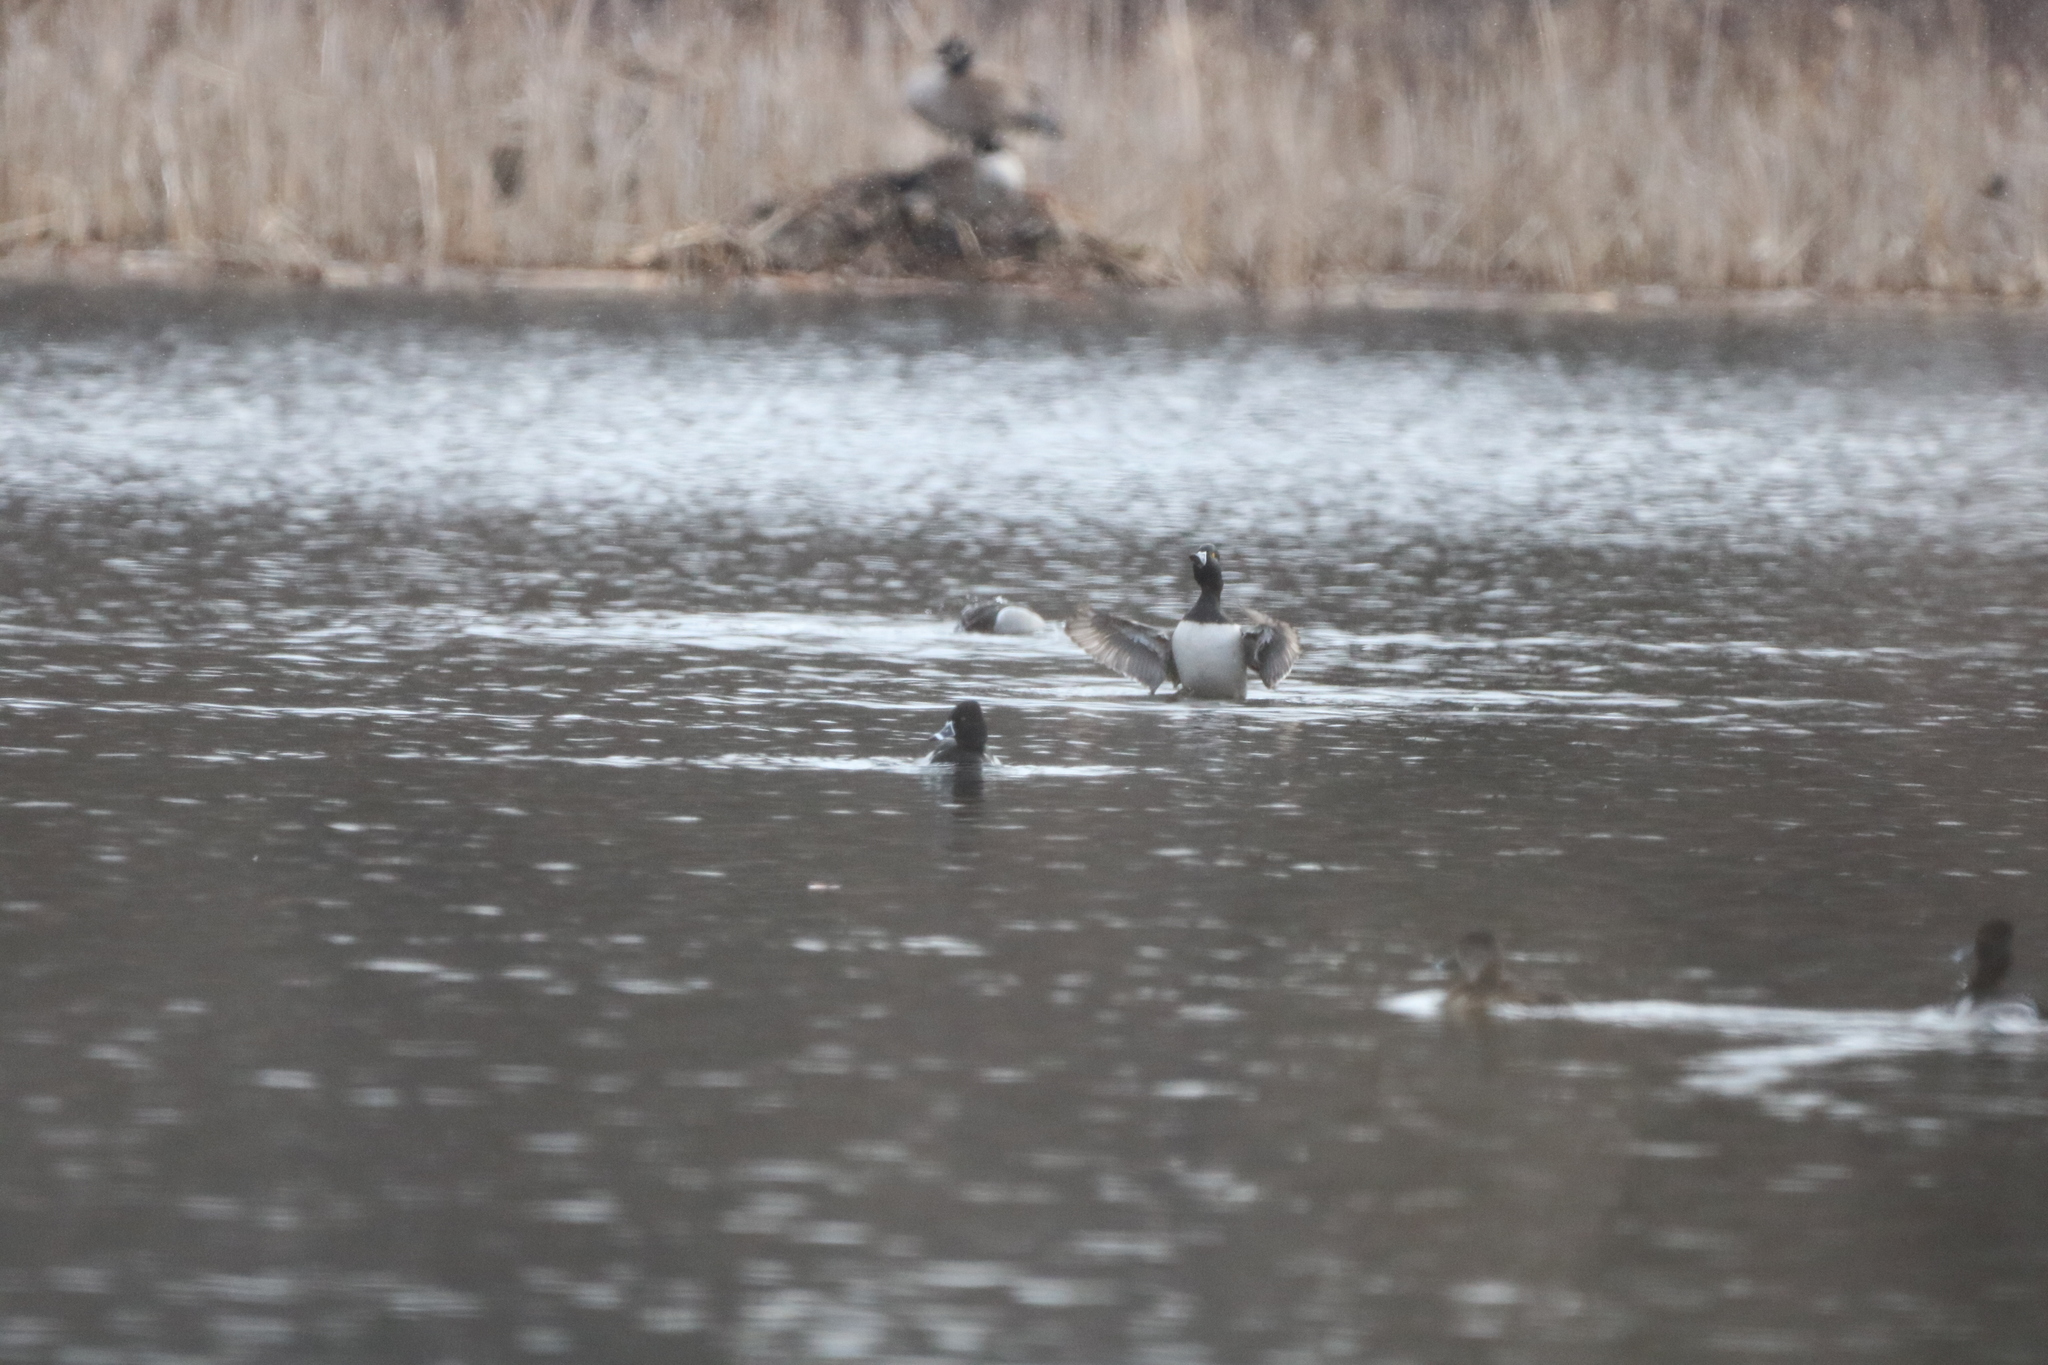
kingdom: Animalia
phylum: Chordata
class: Aves
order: Anseriformes
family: Anatidae
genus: Aythya
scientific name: Aythya collaris
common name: Ring-necked duck
